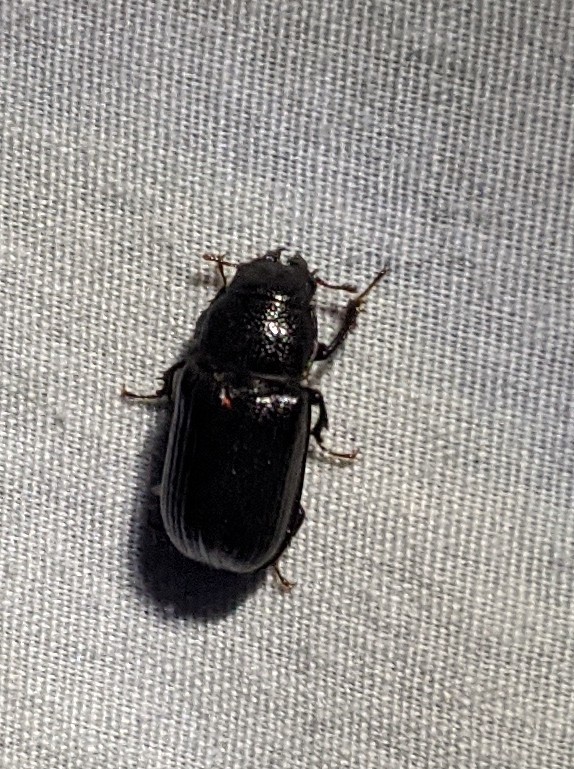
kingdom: Animalia
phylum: Arthropoda
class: Insecta
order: Coleoptera
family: Lucanidae
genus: Ceruchus
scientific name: Ceruchus piceus
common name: Red-rot decay stag beetle
